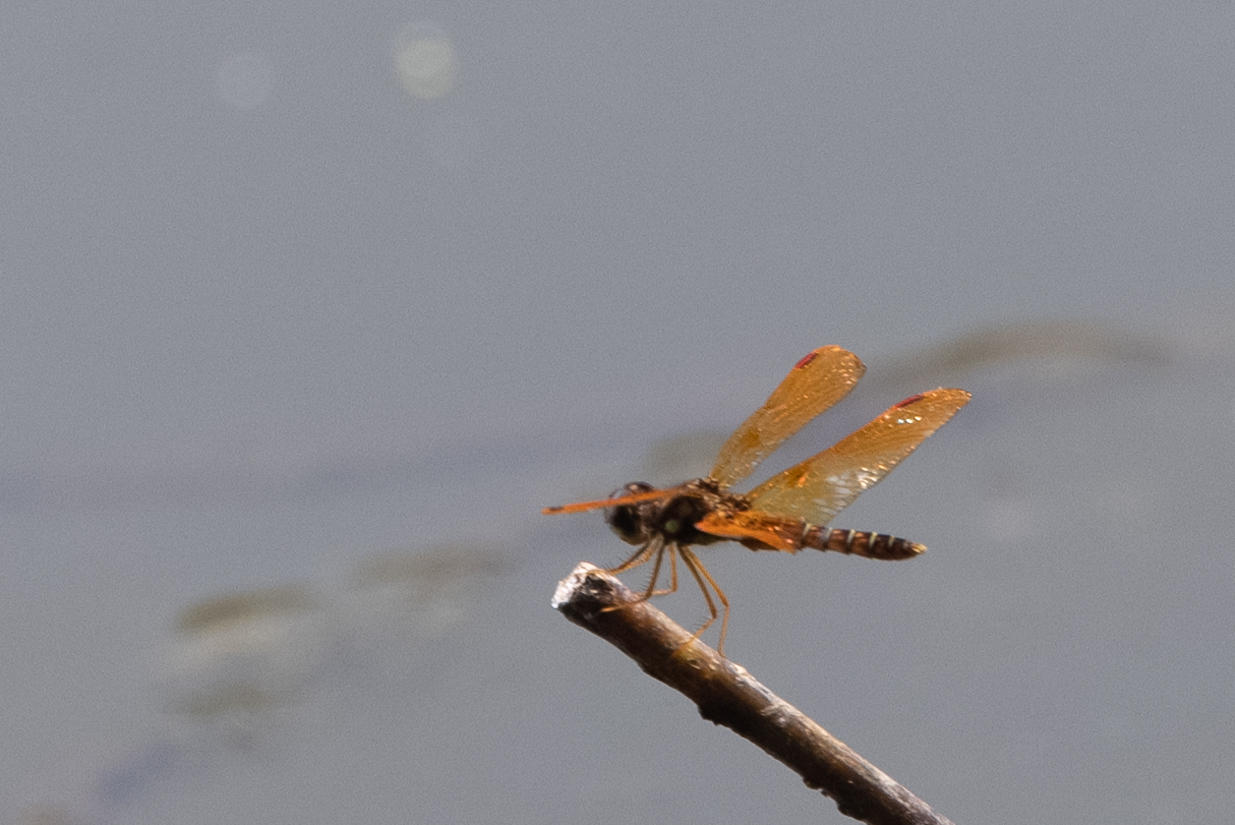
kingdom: Animalia
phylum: Arthropoda
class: Insecta
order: Odonata
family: Libellulidae
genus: Perithemis
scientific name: Perithemis tenera
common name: Eastern amberwing
